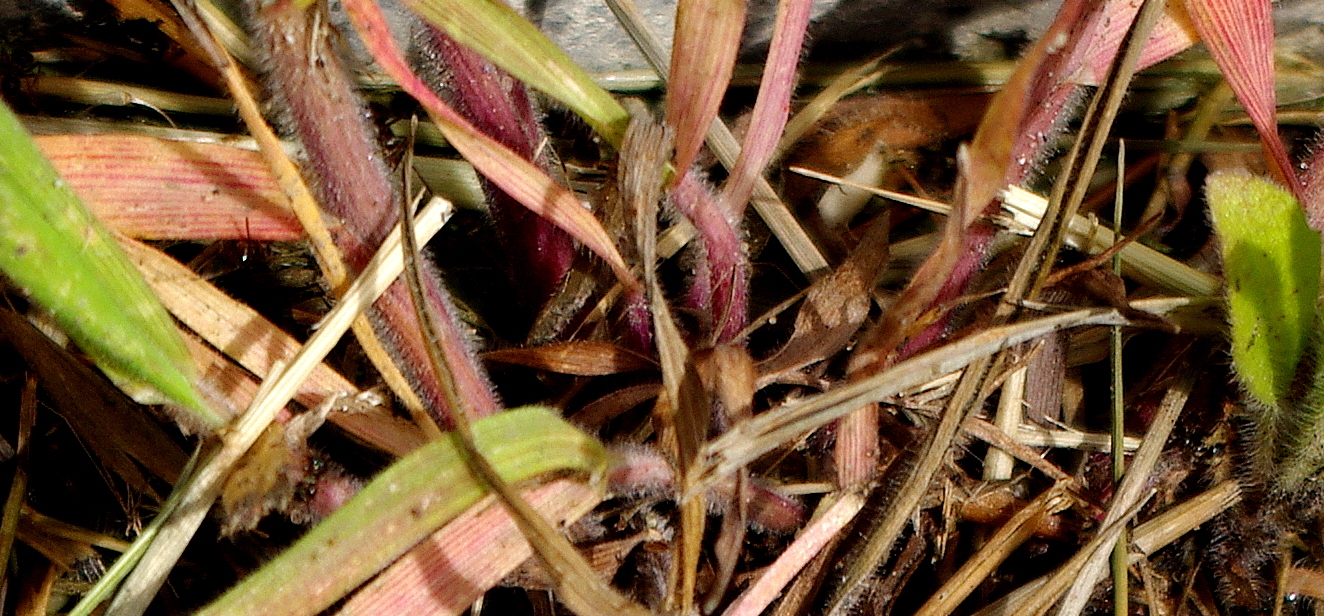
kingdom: Plantae
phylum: Tracheophyta
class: Liliopsida
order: Poales
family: Poaceae
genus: Bromus
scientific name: Bromus hordeaceus
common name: Soft brome
